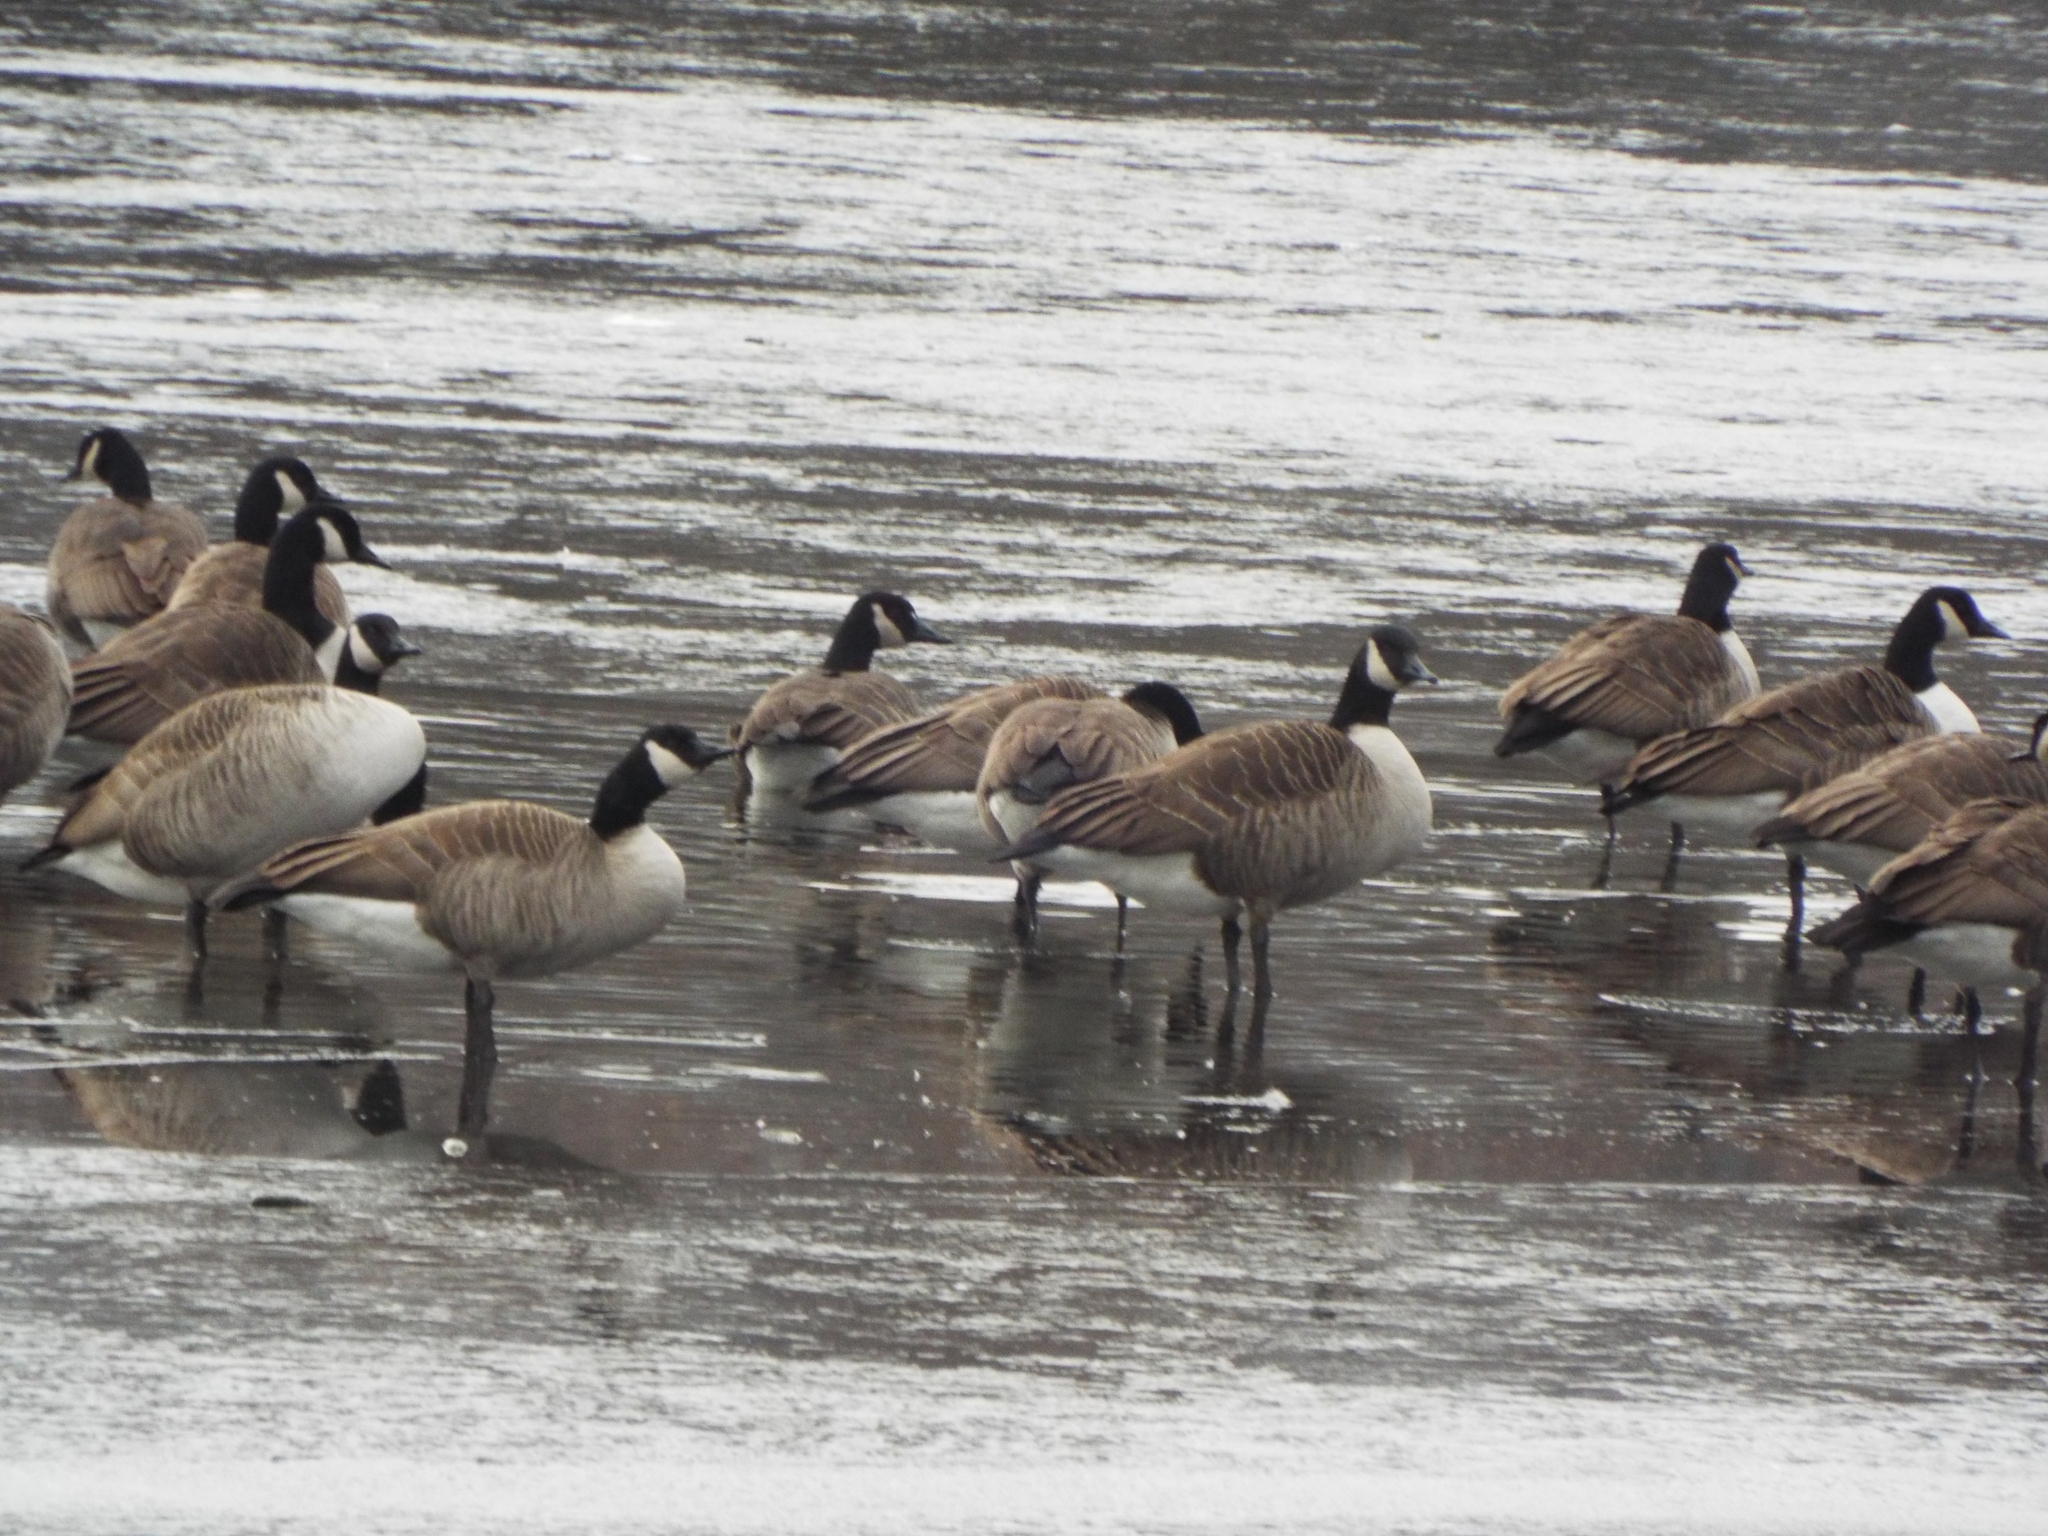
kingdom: Animalia
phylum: Chordata
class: Aves
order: Anseriformes
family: Anatidae
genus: Branta
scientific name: Branta canadensis
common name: Canada goose
